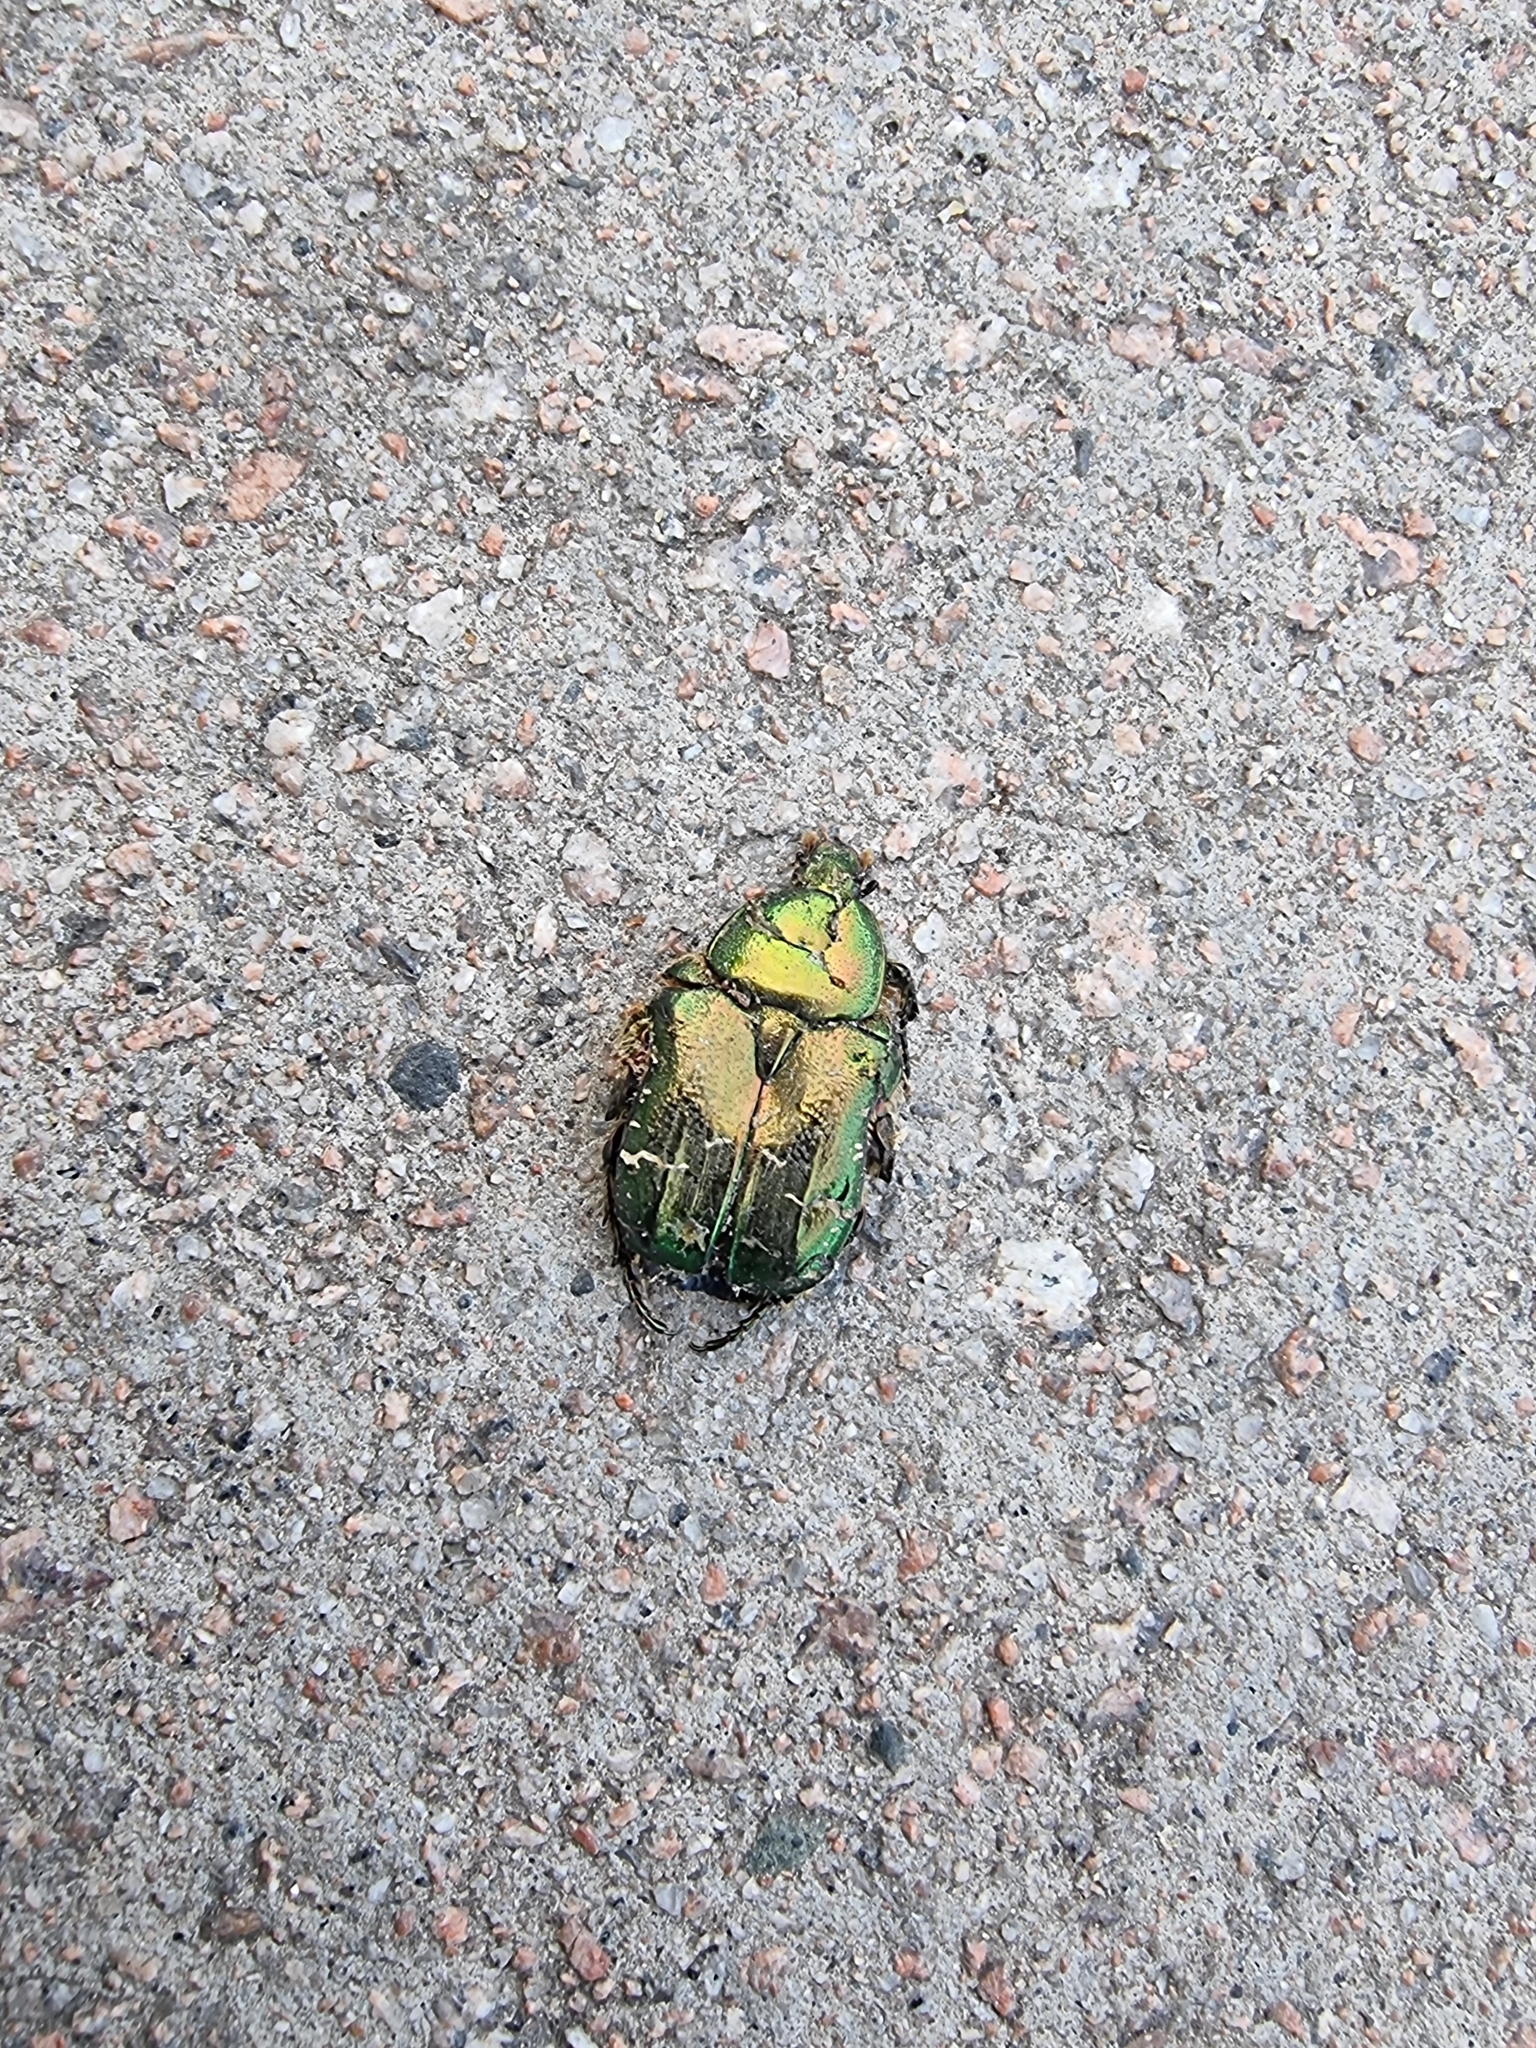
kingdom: Animalia
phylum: Arthropoda
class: Insecta
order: Coleoptera
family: Scarabaeidae
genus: Cetonia
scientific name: Cetonia aurata
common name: Rose chafer
